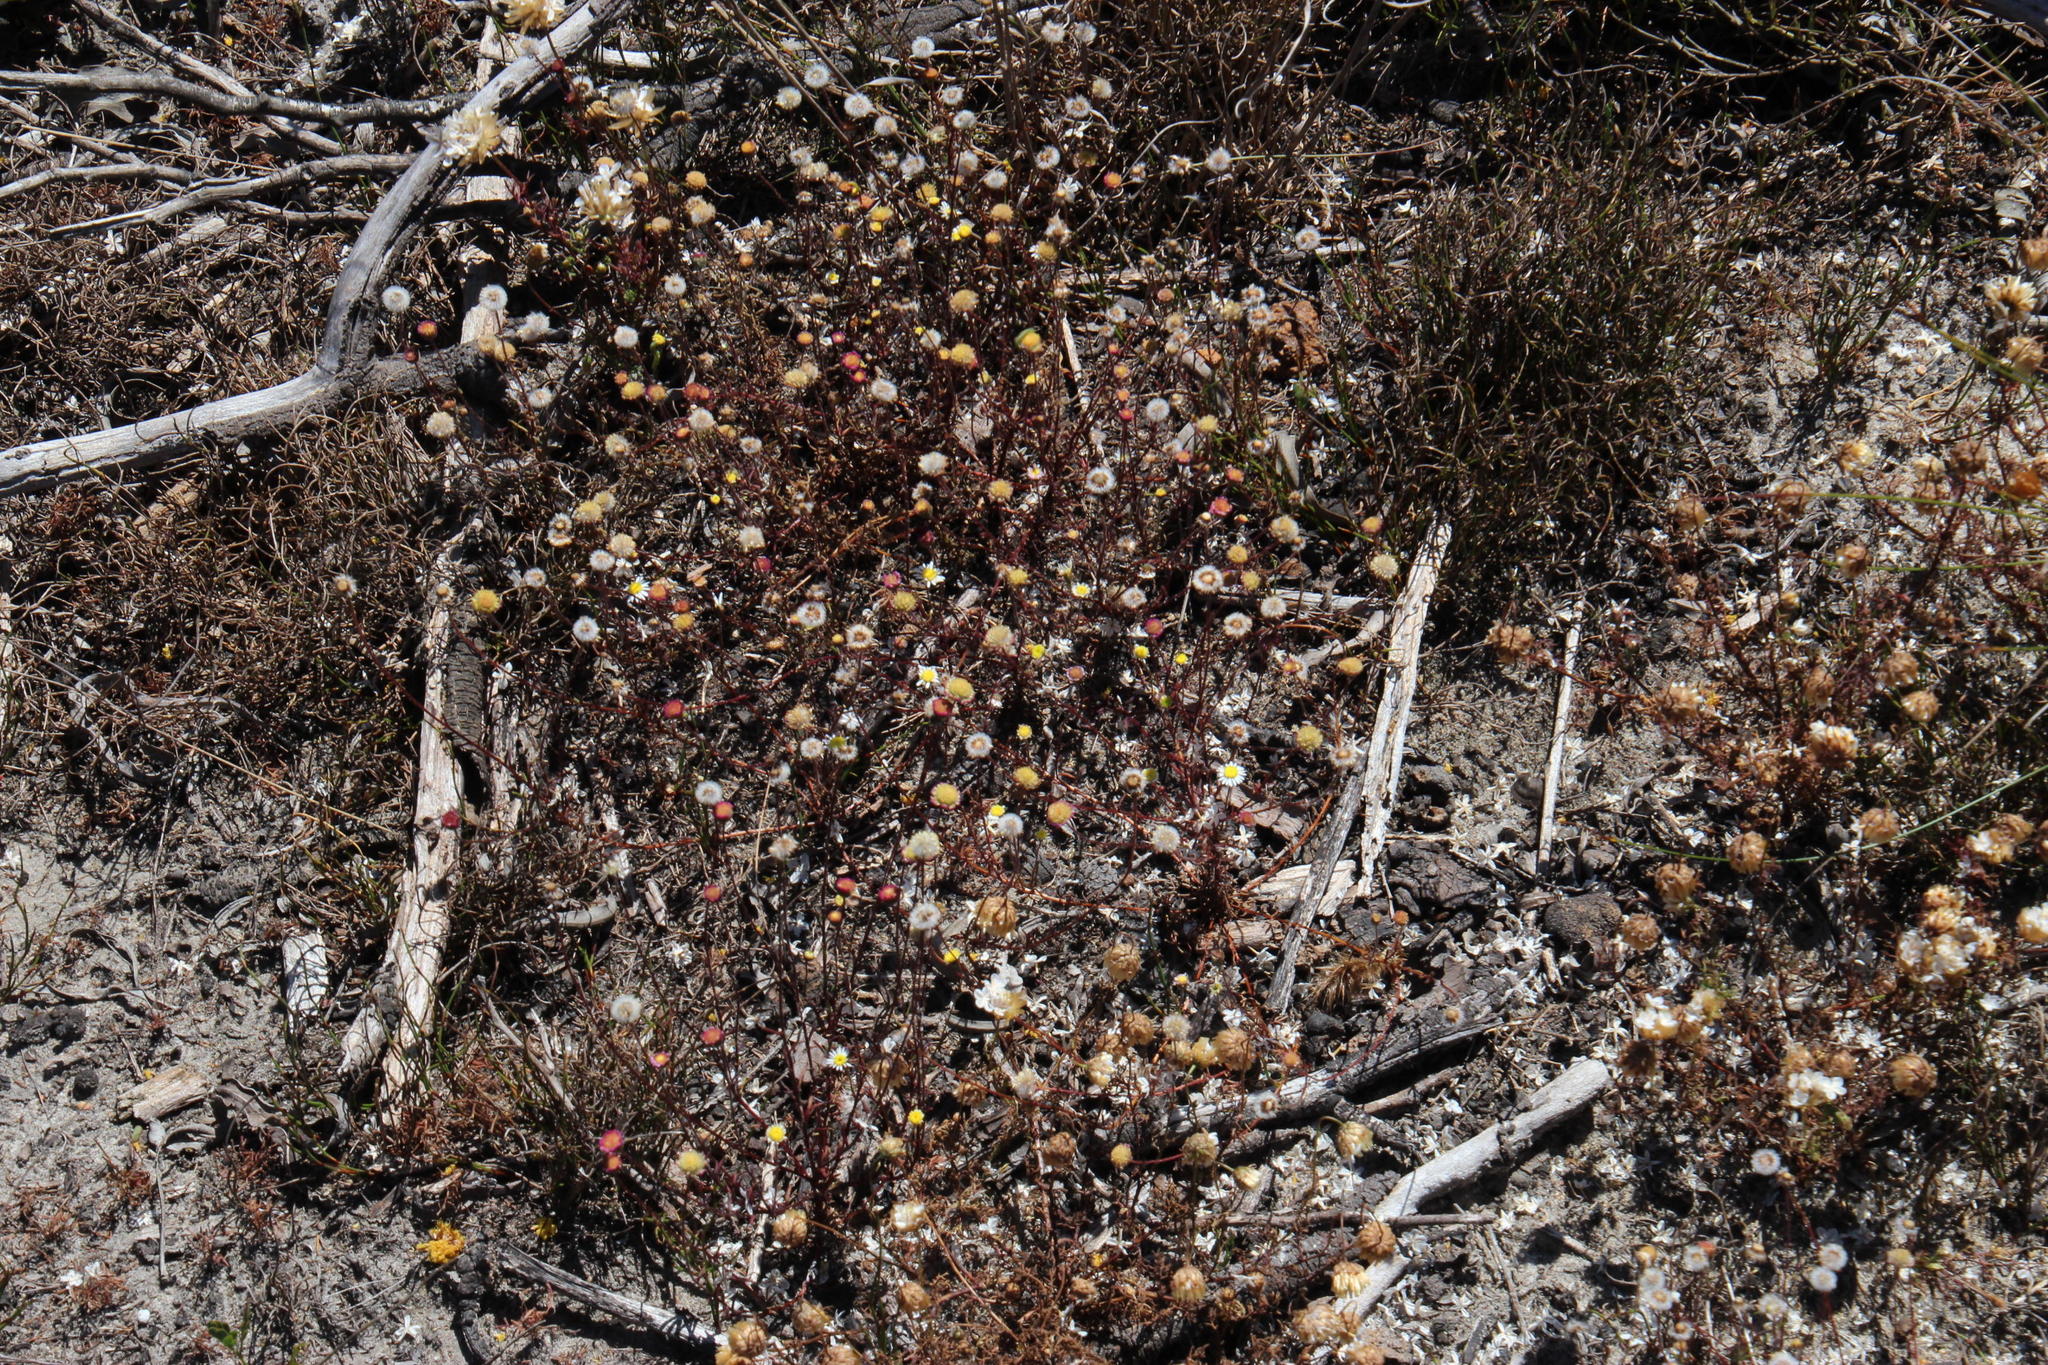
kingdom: Plantae
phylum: Tracheophyta
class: Magnoliopsida
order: Asterales
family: Asteraceae
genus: Cotula
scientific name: Cotula turbinata
